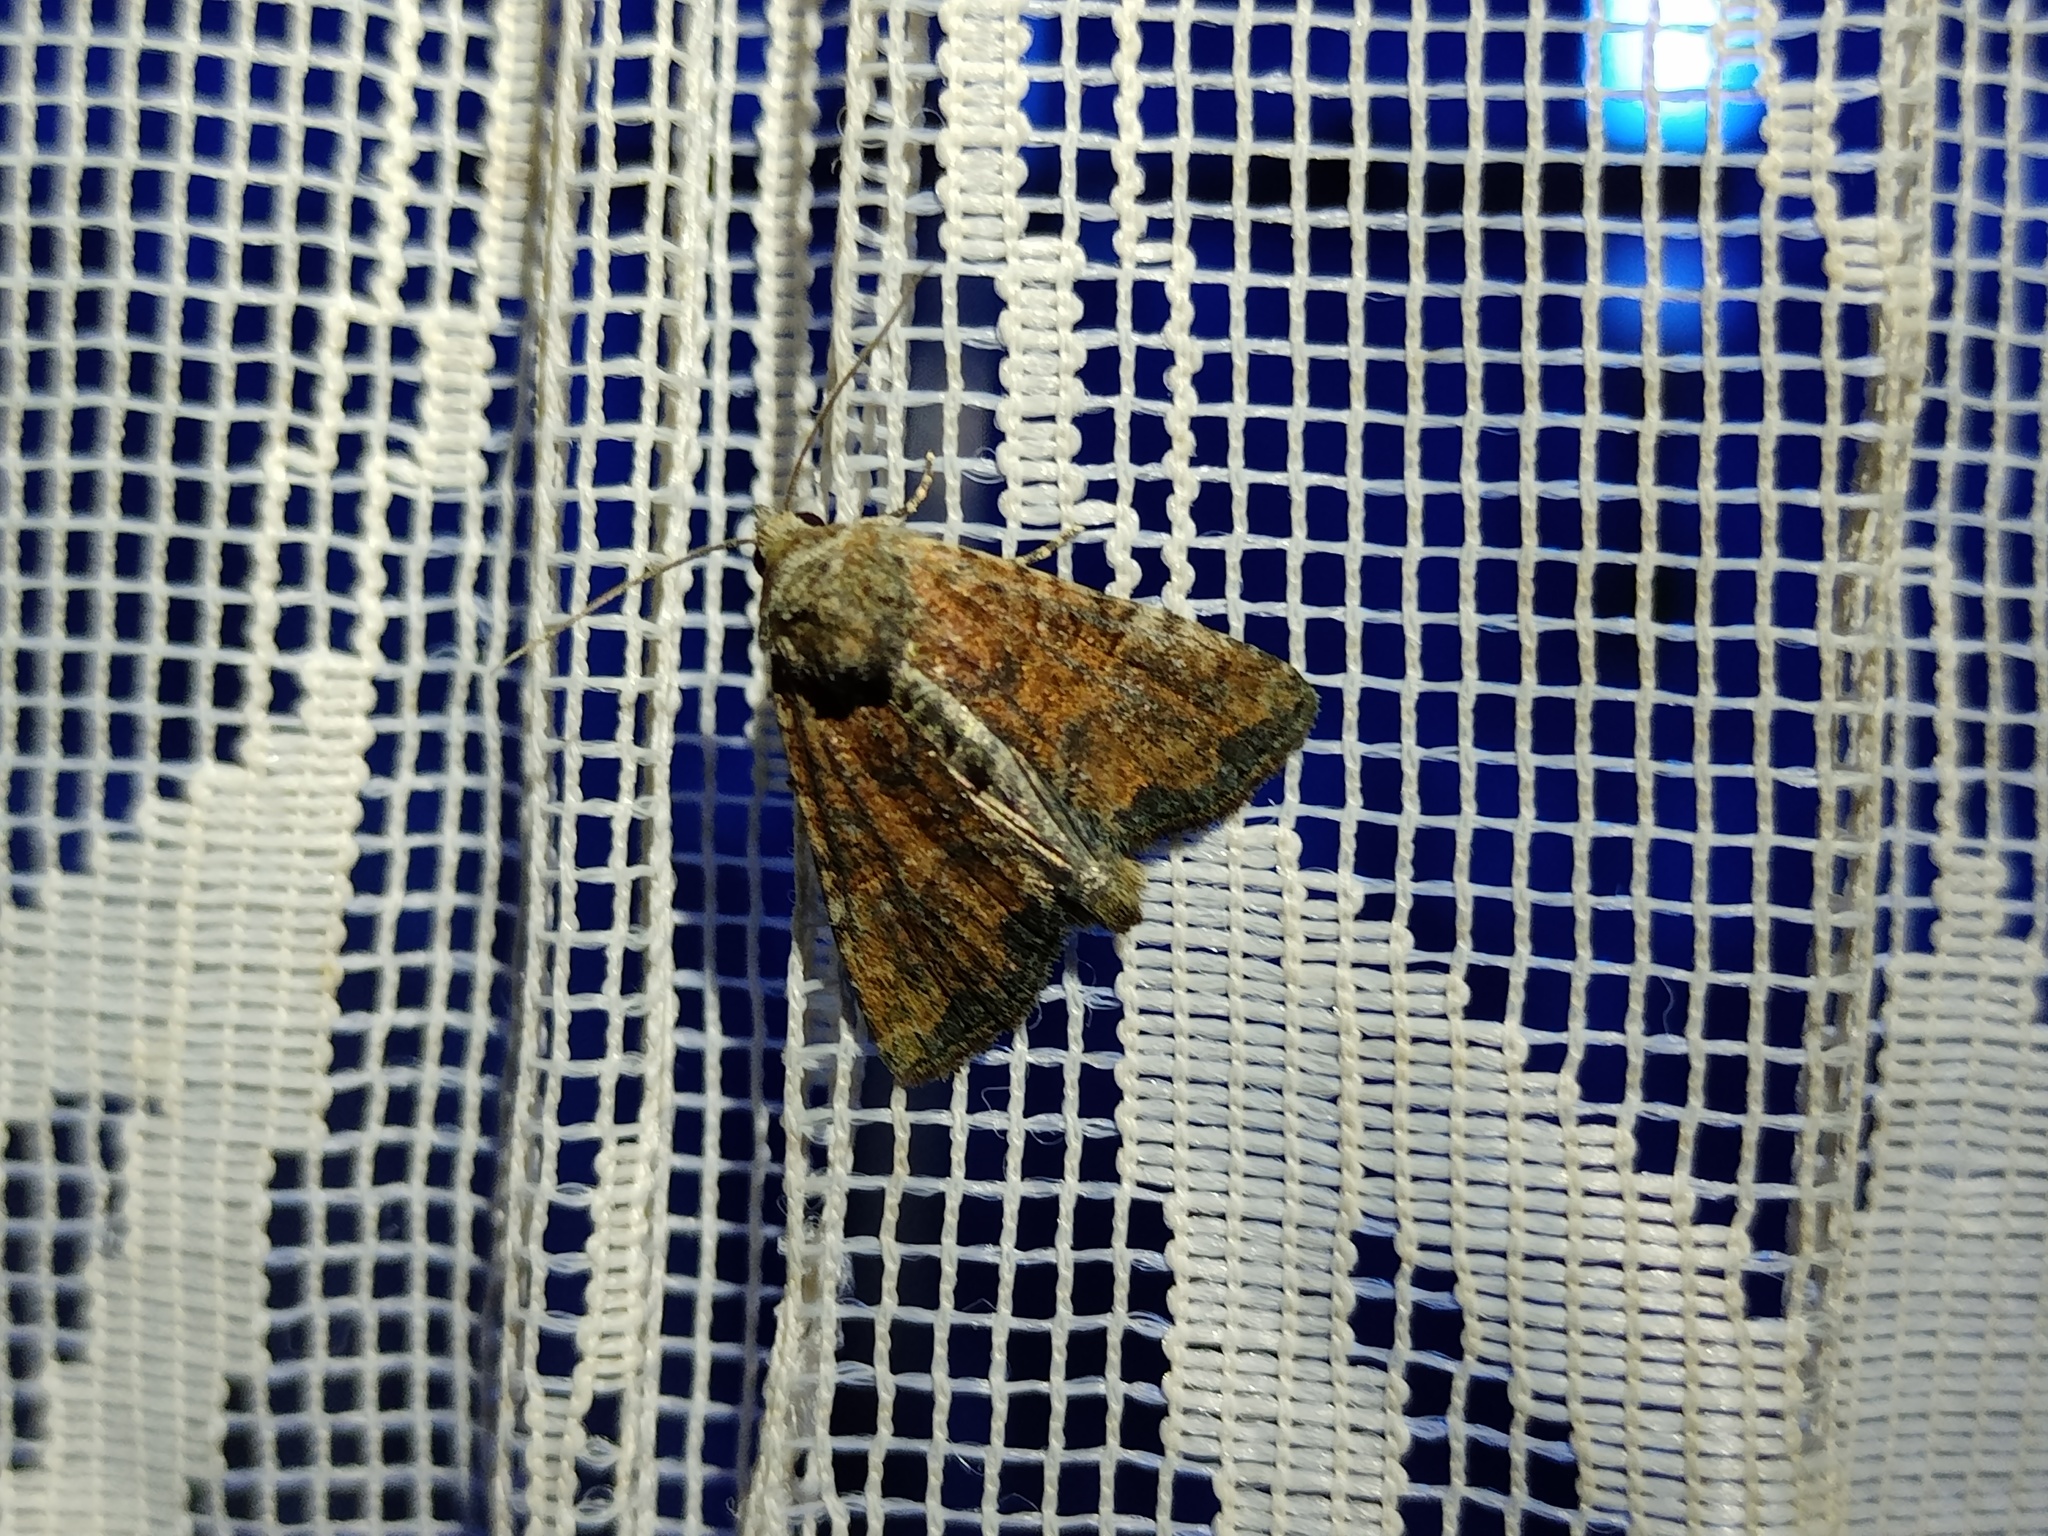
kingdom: Animalia
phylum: Arthropoda
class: Insecta
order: Lepidoptera
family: Noctuidae
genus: Mesoligia
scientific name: Mesoligia furuncula
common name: Cloaked minor
